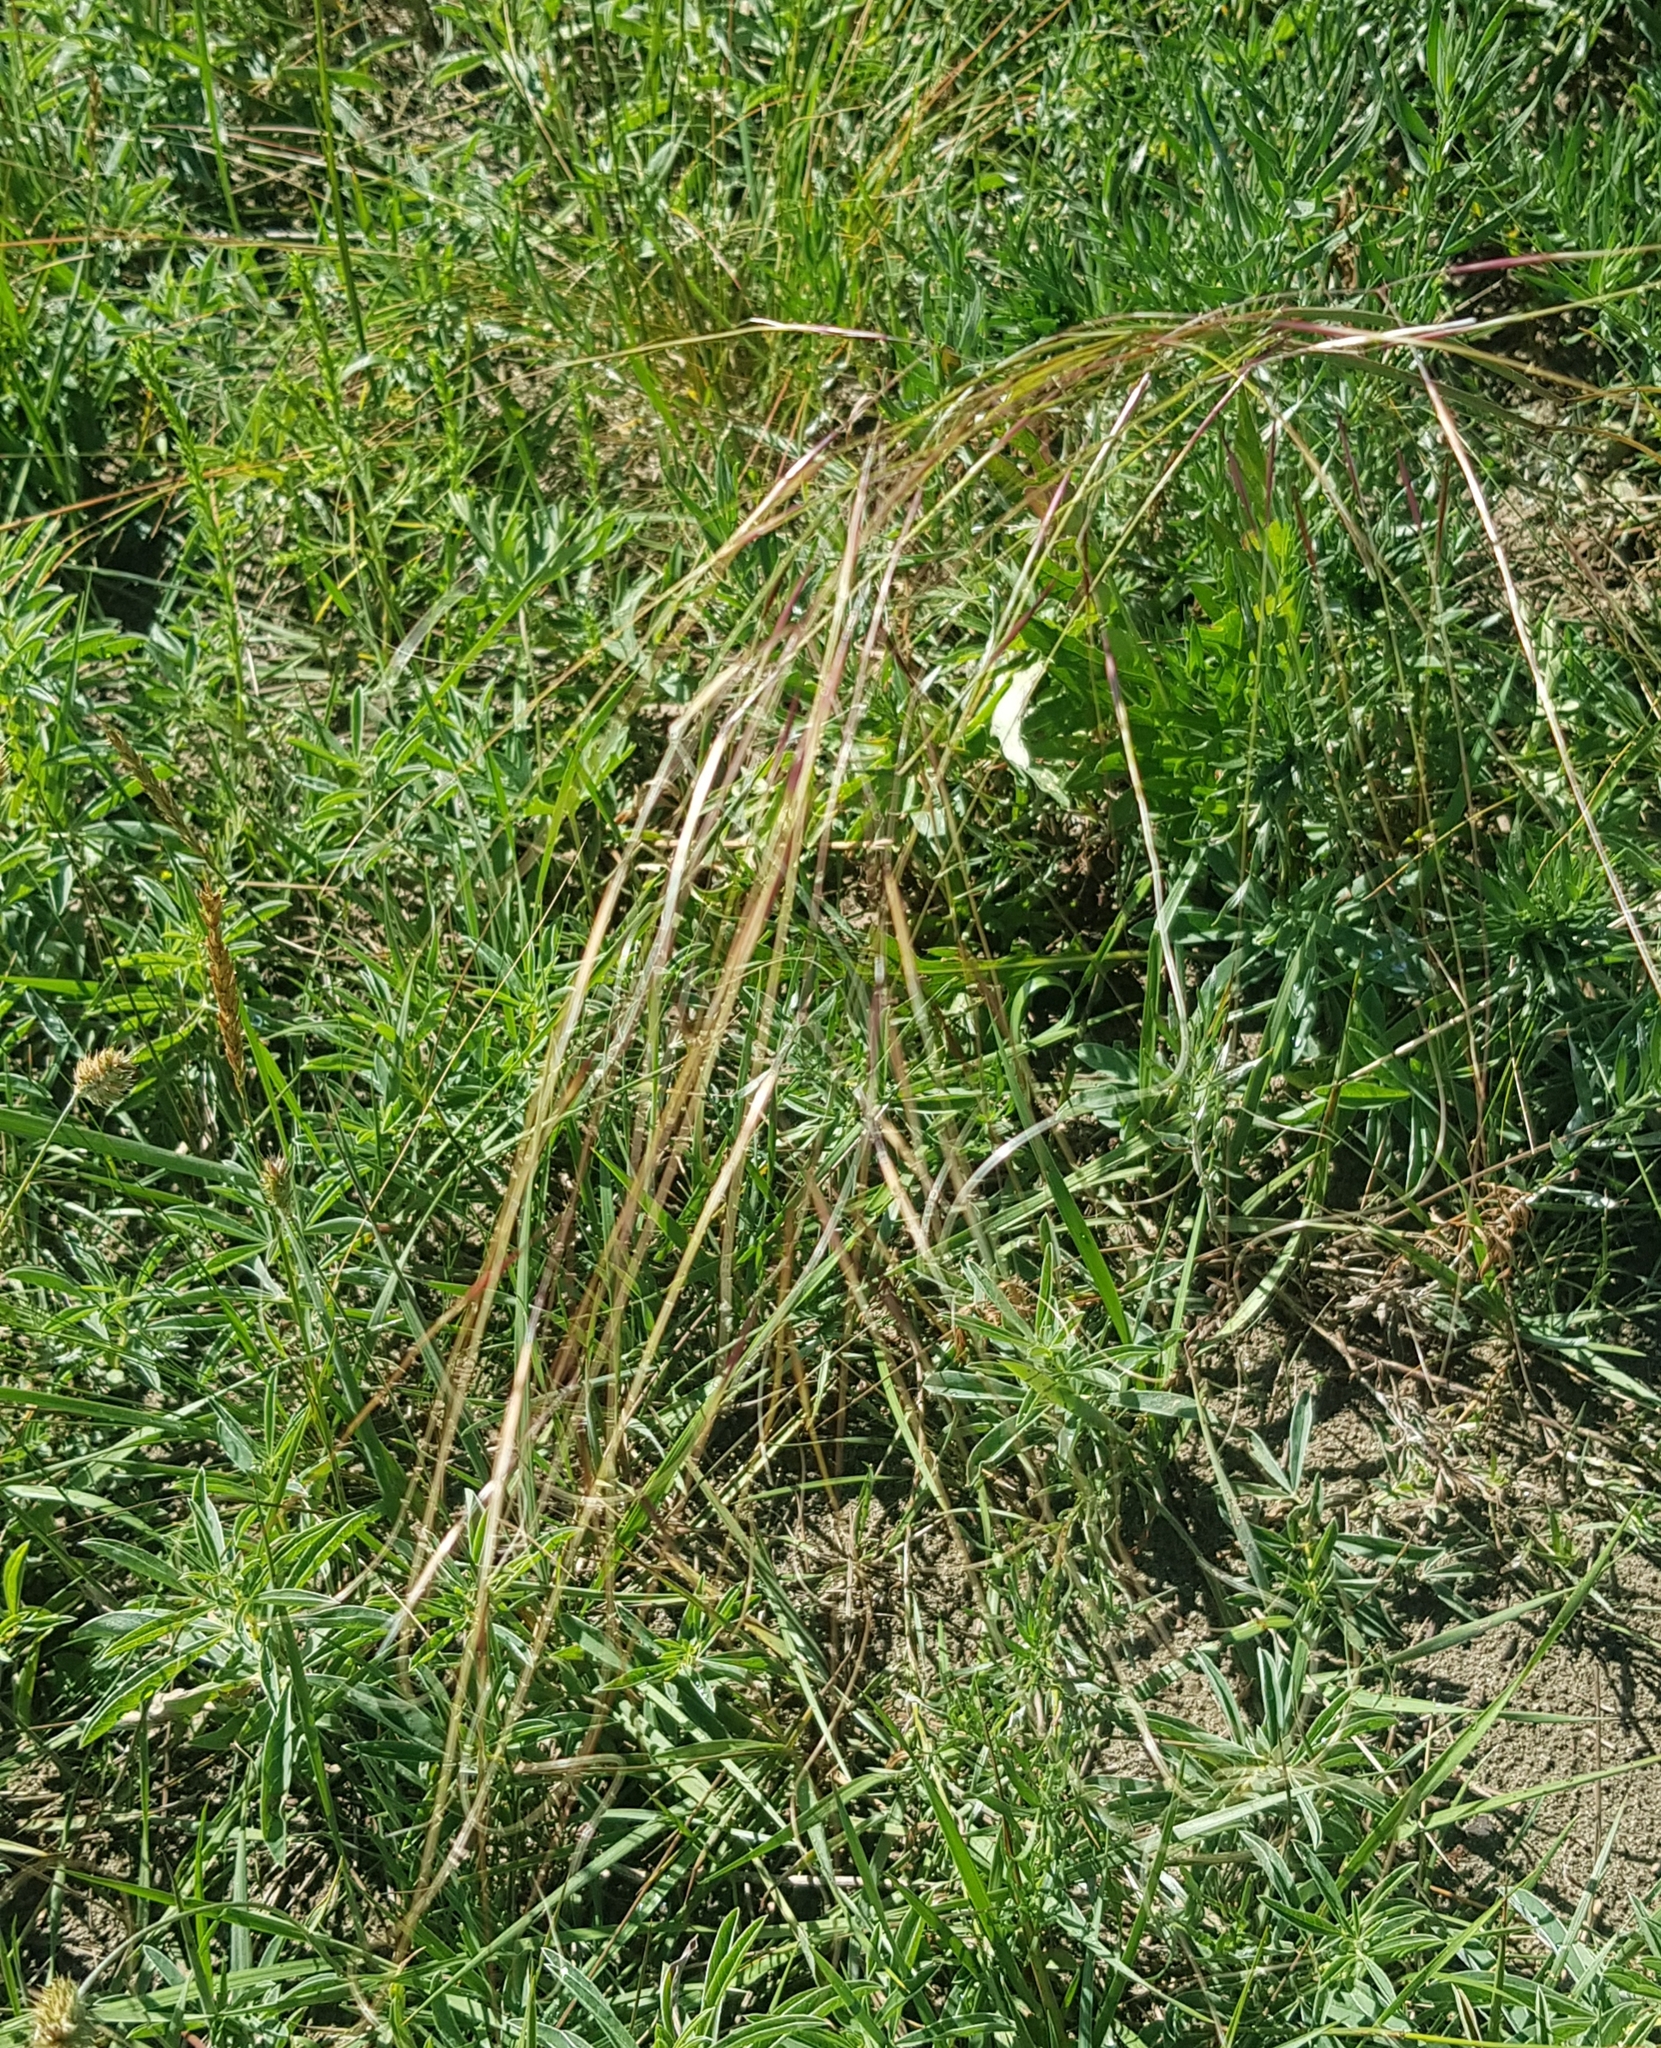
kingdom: Plantae
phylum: Tracheophyta
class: Liliopsida
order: Poales
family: Poaceae
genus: Stipa
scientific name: Stipa krylovii
